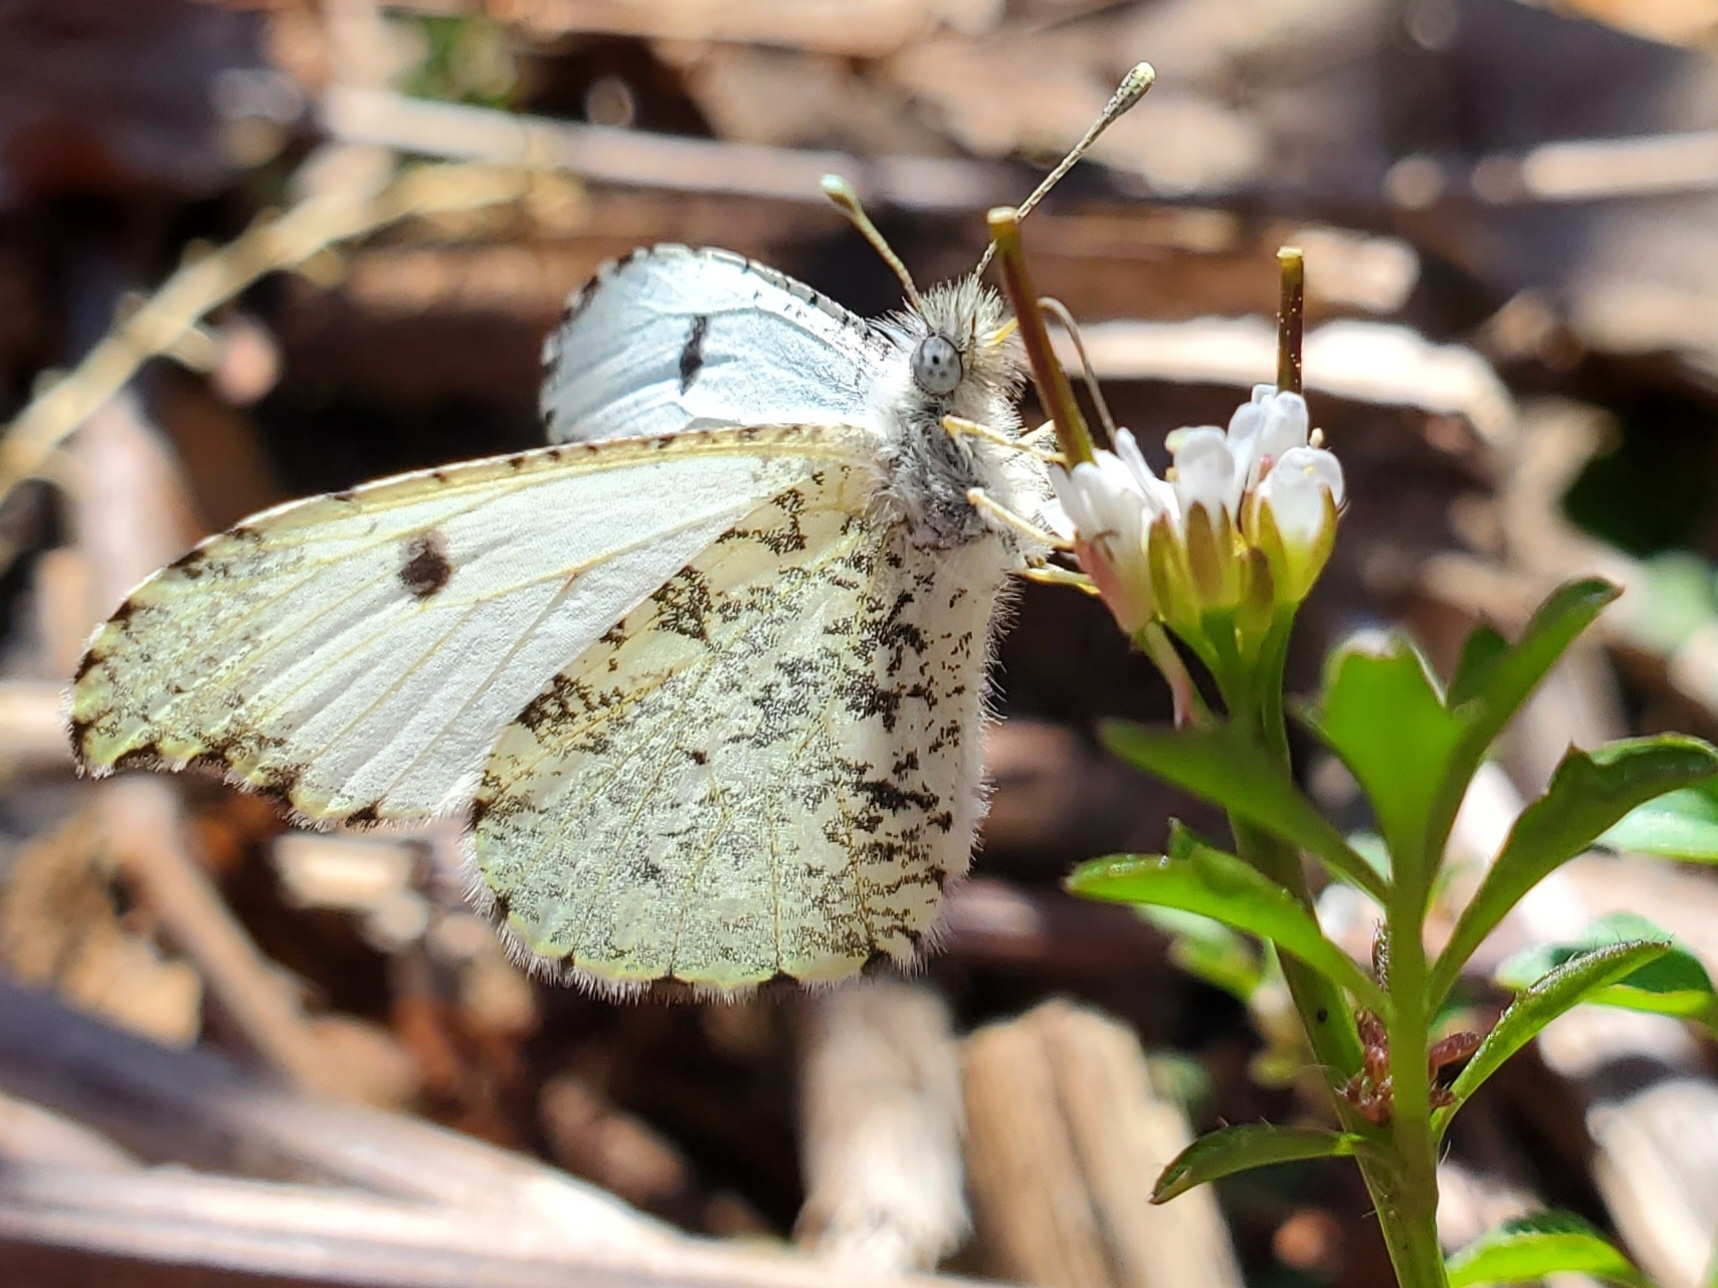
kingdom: Animalia
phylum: Arthropoda
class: Insecta
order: Lepidoptera
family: Pieridae
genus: Anthocharis
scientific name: Anthocharis midea
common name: Falcate orangetip
